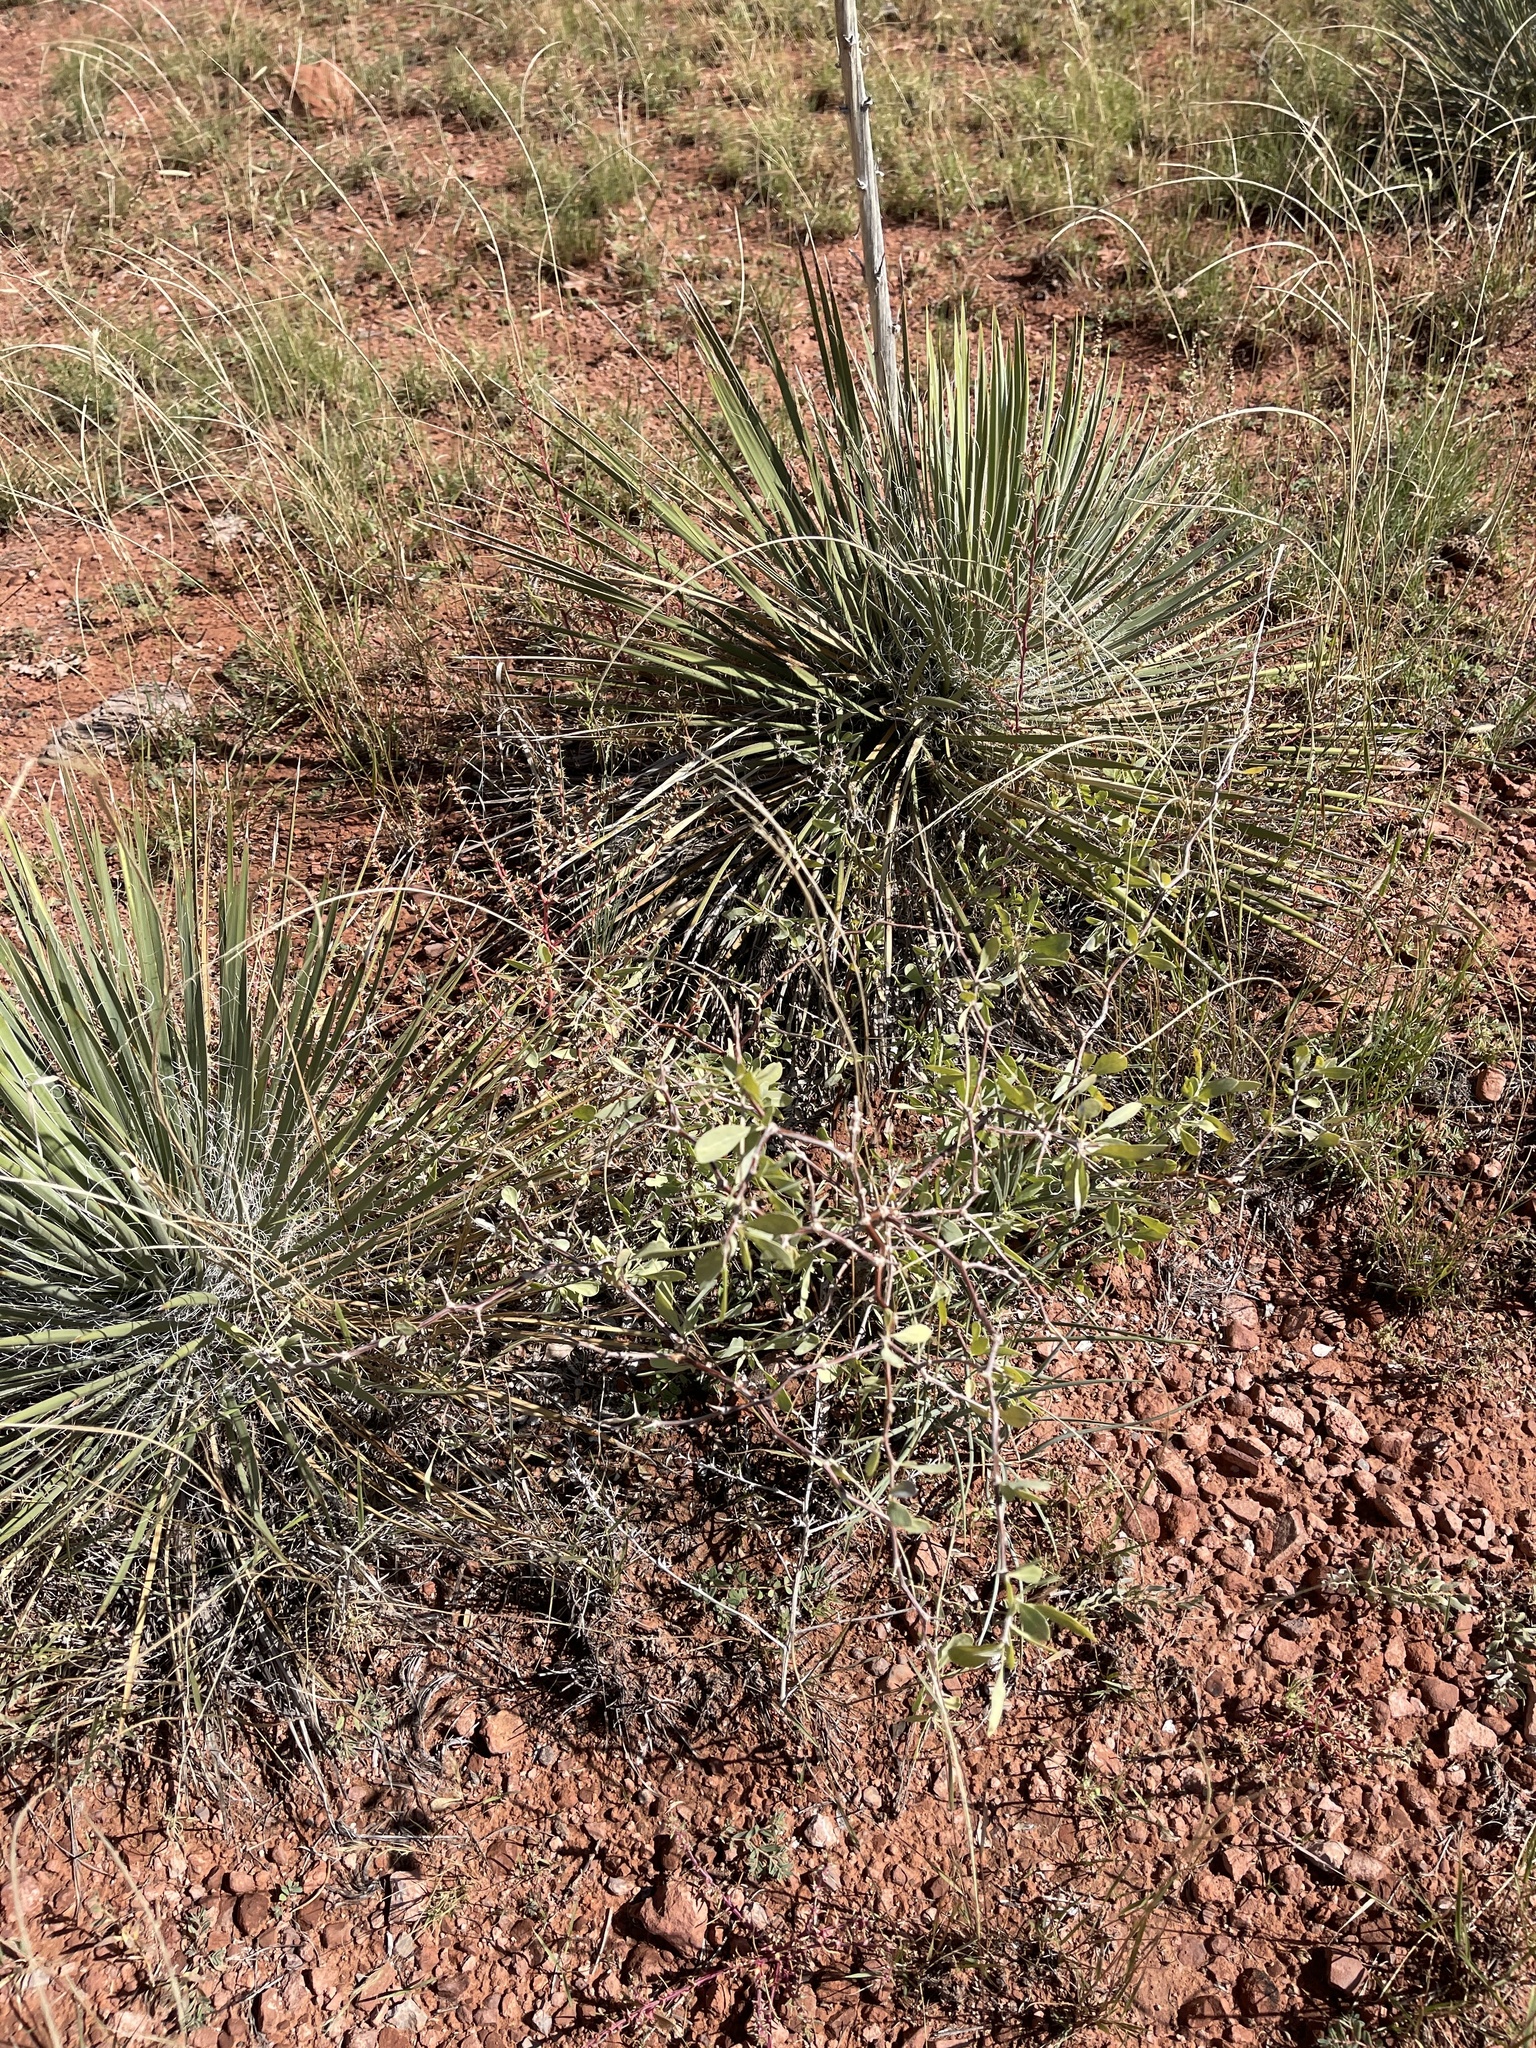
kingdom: Plantae
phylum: Tracheophyta
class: Liliopsida
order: Asparagales
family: Asparagaceae
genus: Yucca
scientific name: Yucca angustissima
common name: Narrowleaf yucca
